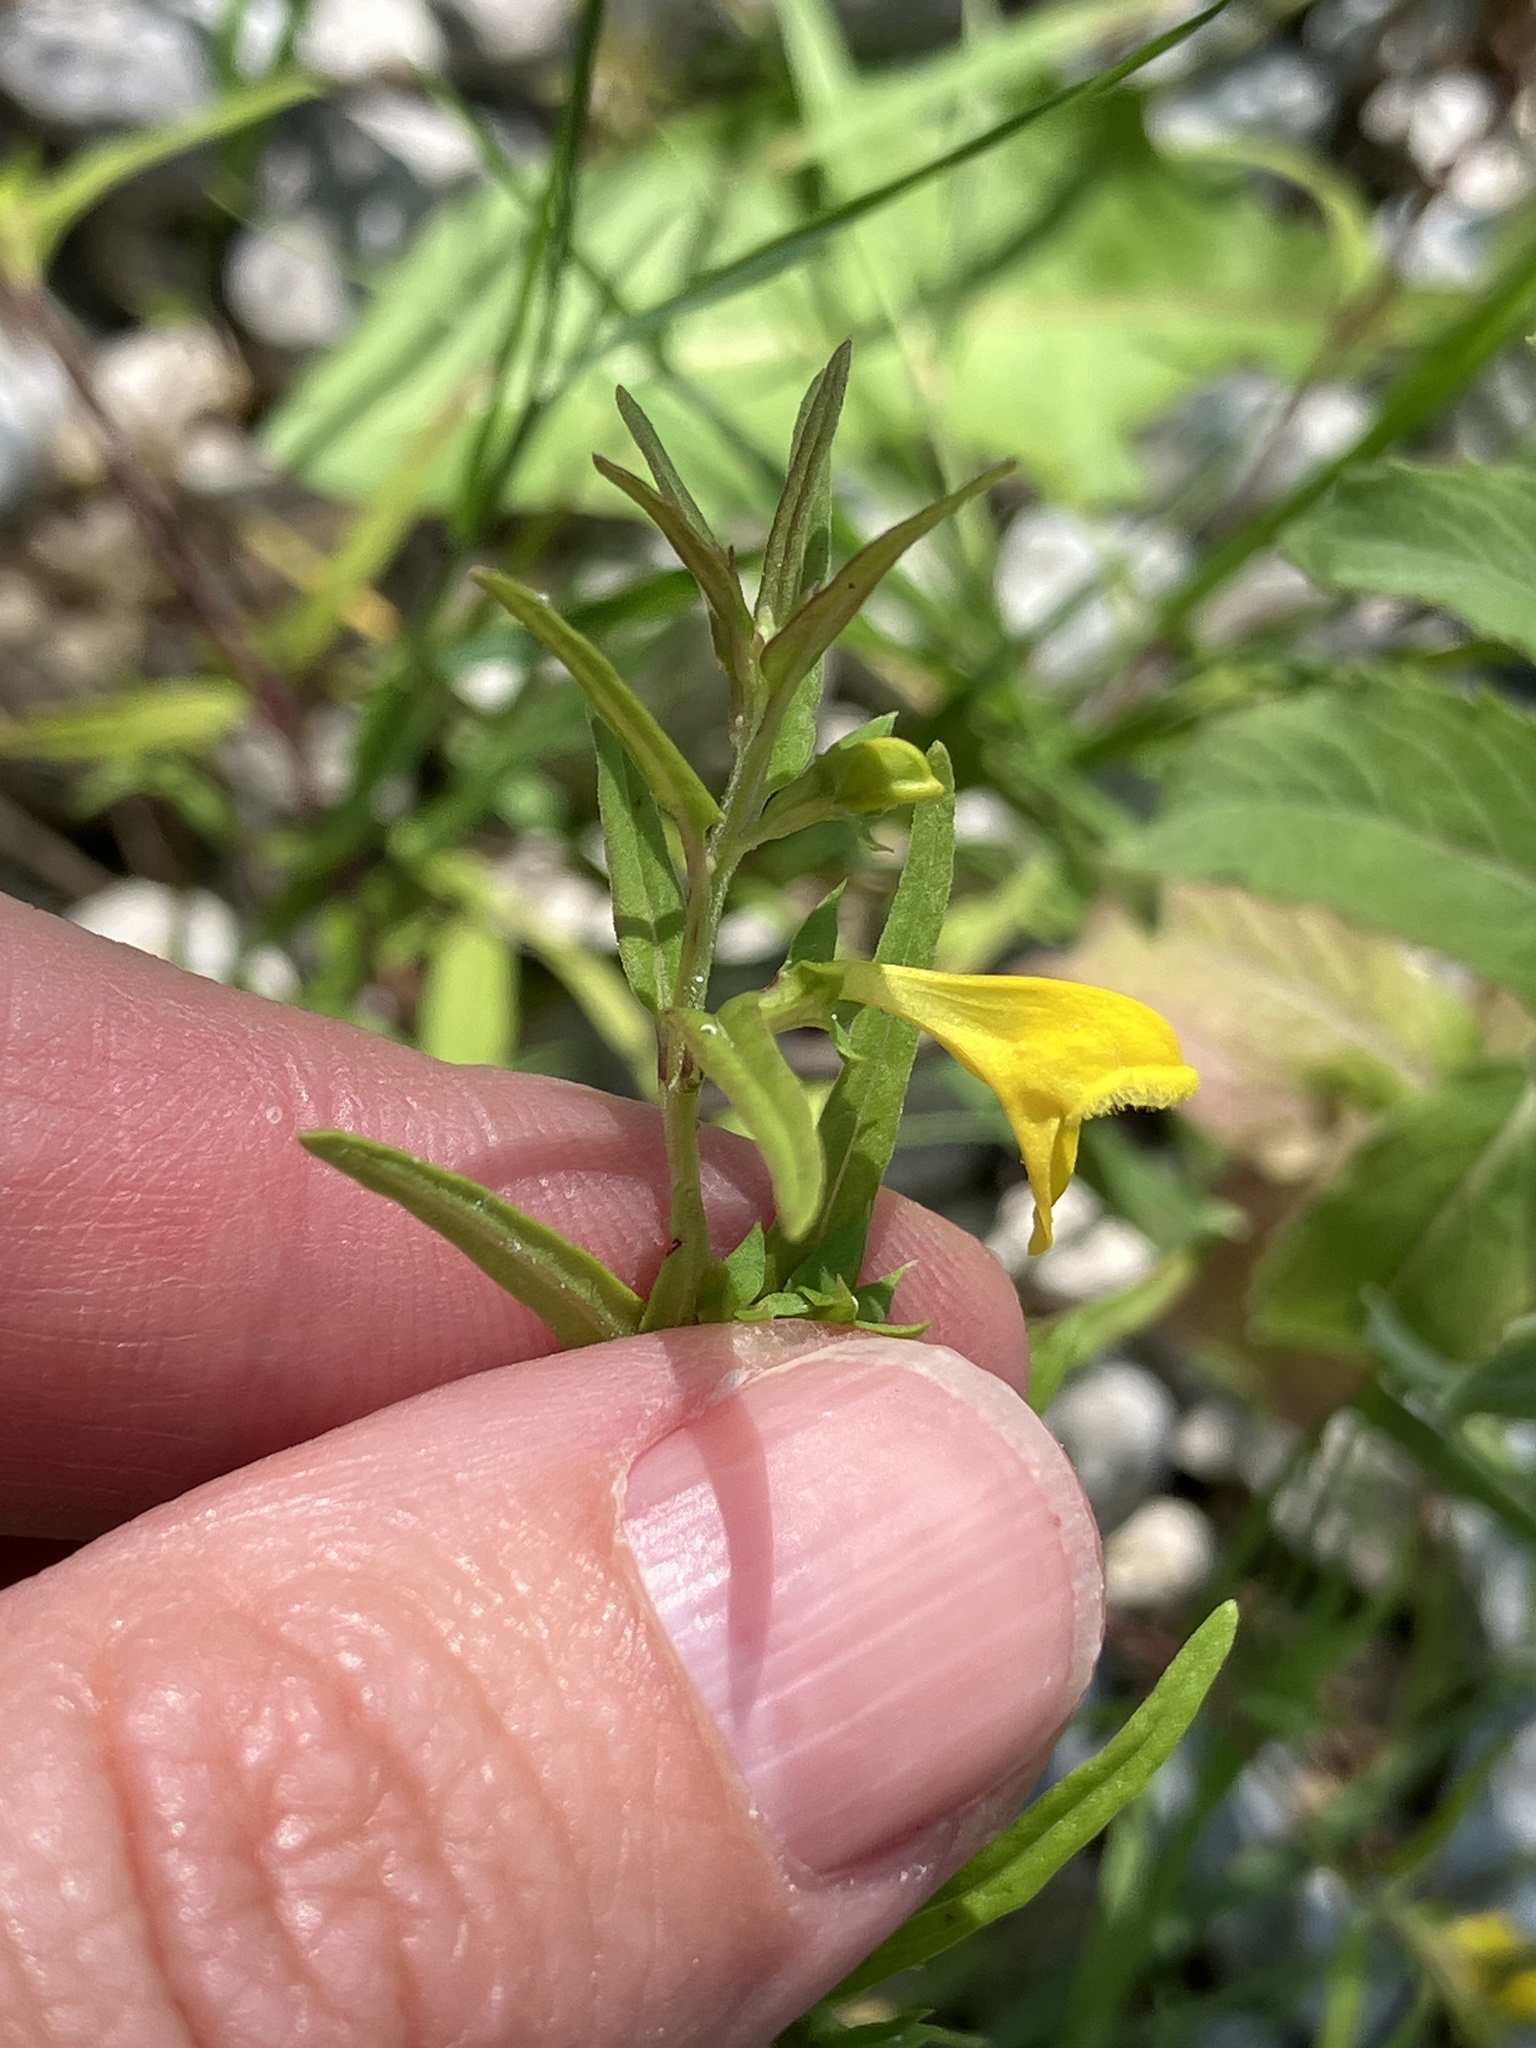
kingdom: Plantae
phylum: Tracheophyta
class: Magnoliopsida
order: Lamiales
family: Orobanchaceae
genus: Melampyrum
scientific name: Melampyrum sylvaticum
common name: Small cow-wheat
